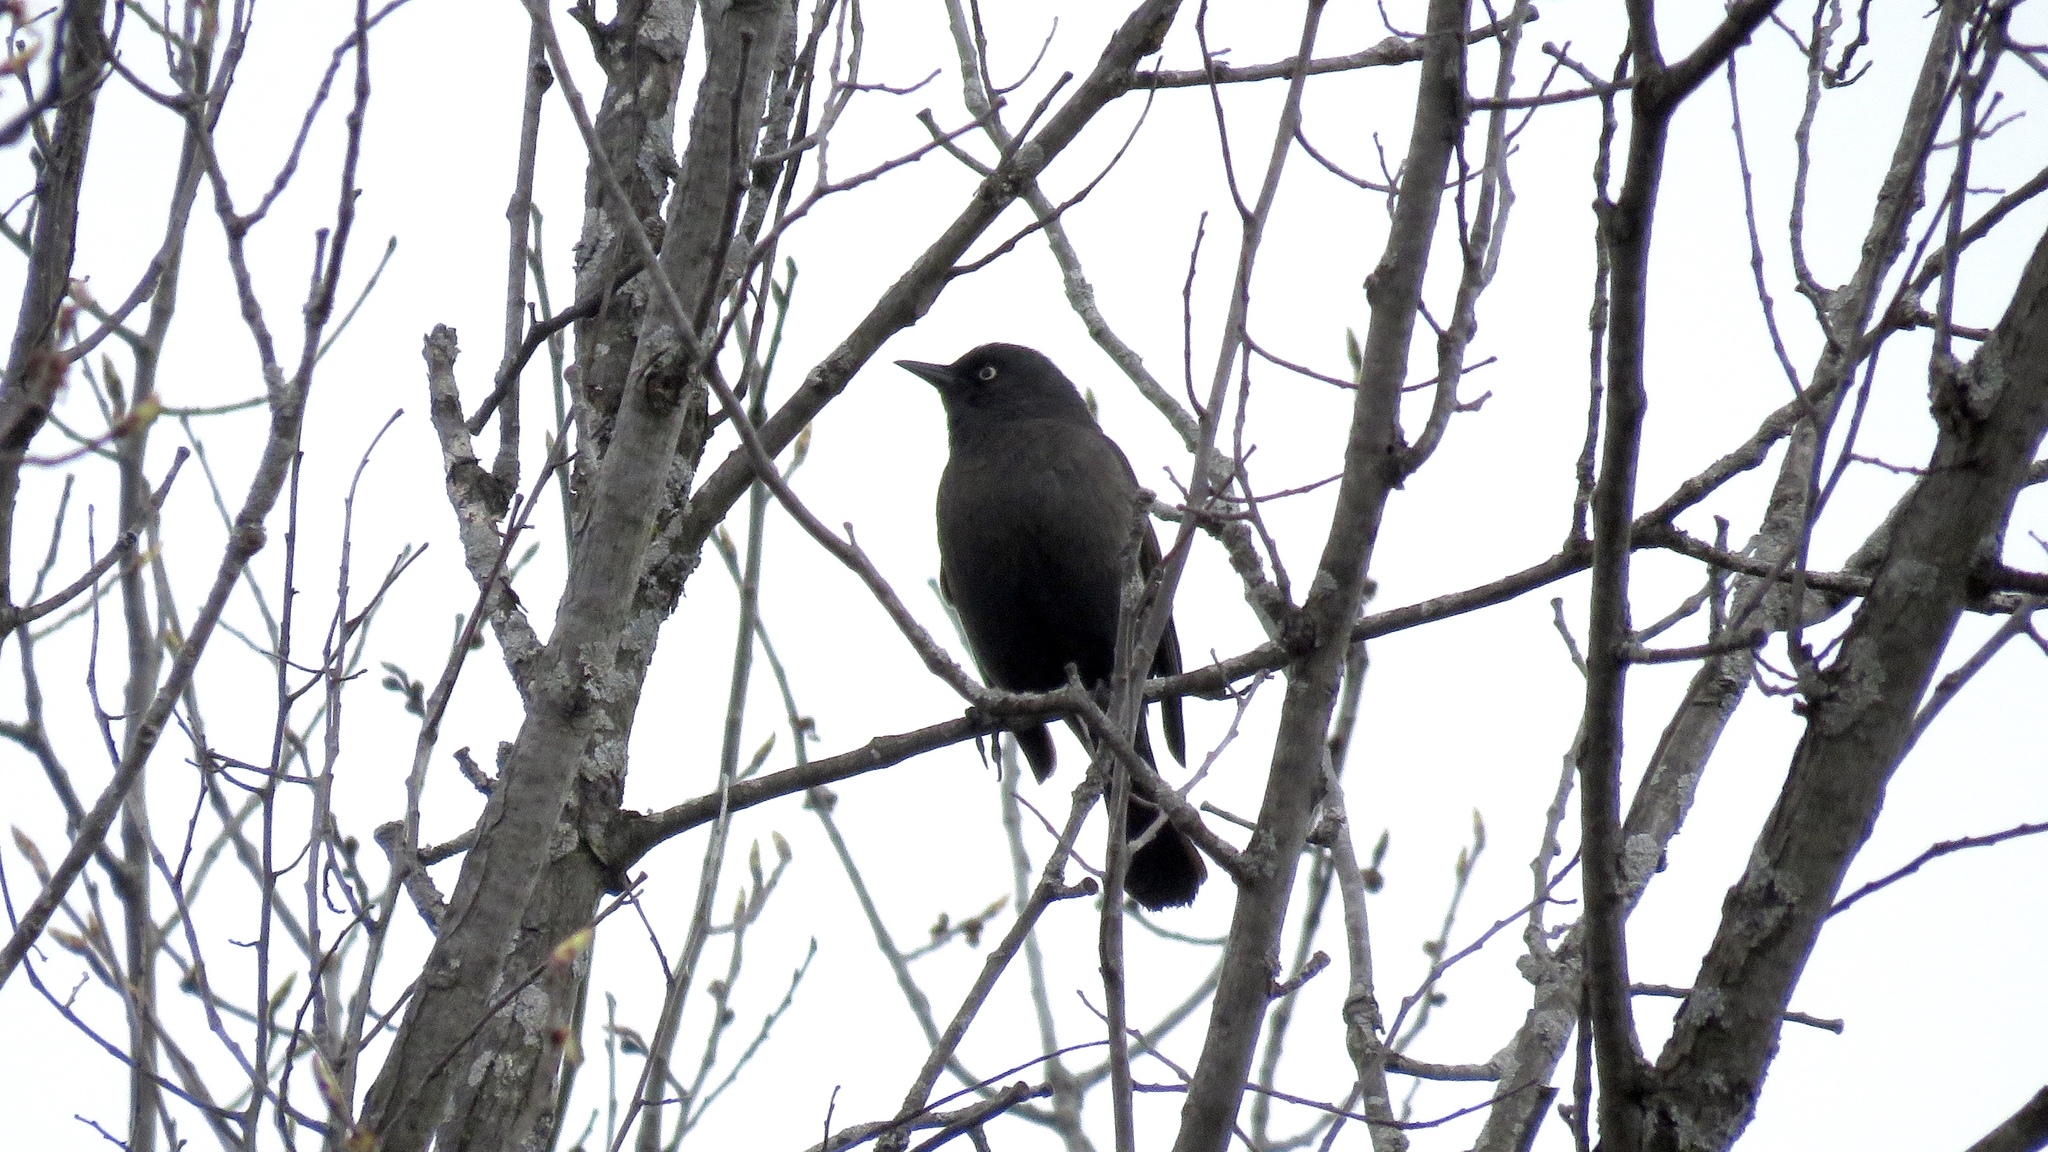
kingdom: Animalia
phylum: Chordata
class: Aves
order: Passeriformes
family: Icteridae
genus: Euphagus
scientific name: Euphagus carolinus
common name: Rusty blackbird
